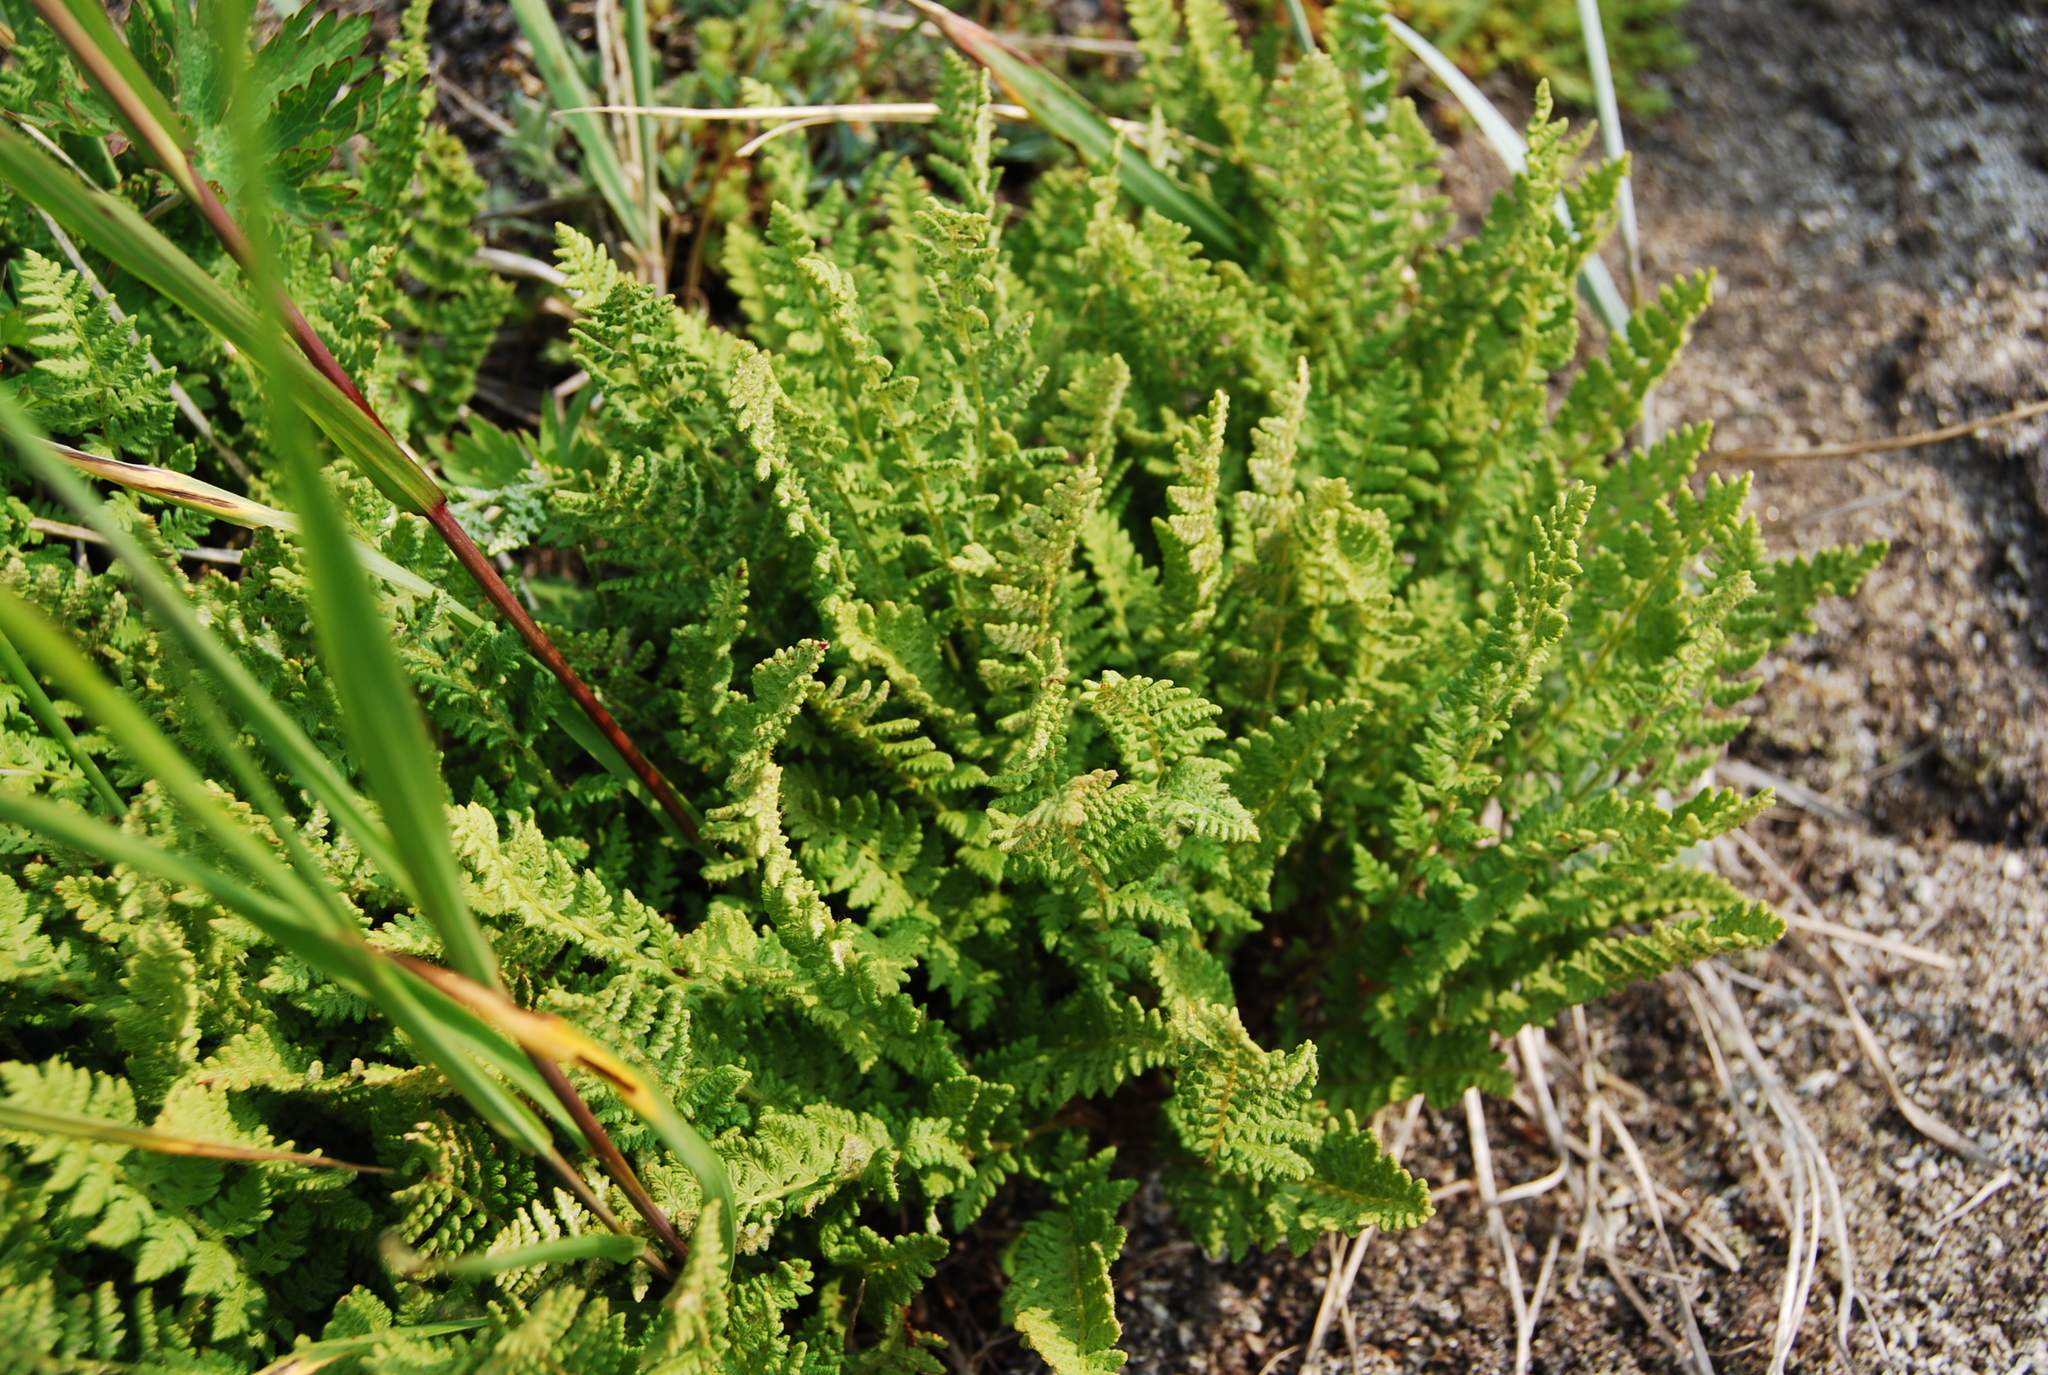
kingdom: Plantae
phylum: Tracheophyta
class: Polypodiopsida
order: Polypodiales
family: Woodsiaceae
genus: Woodsia
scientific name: Woodsia ilvensis
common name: Fragrant woodsia
